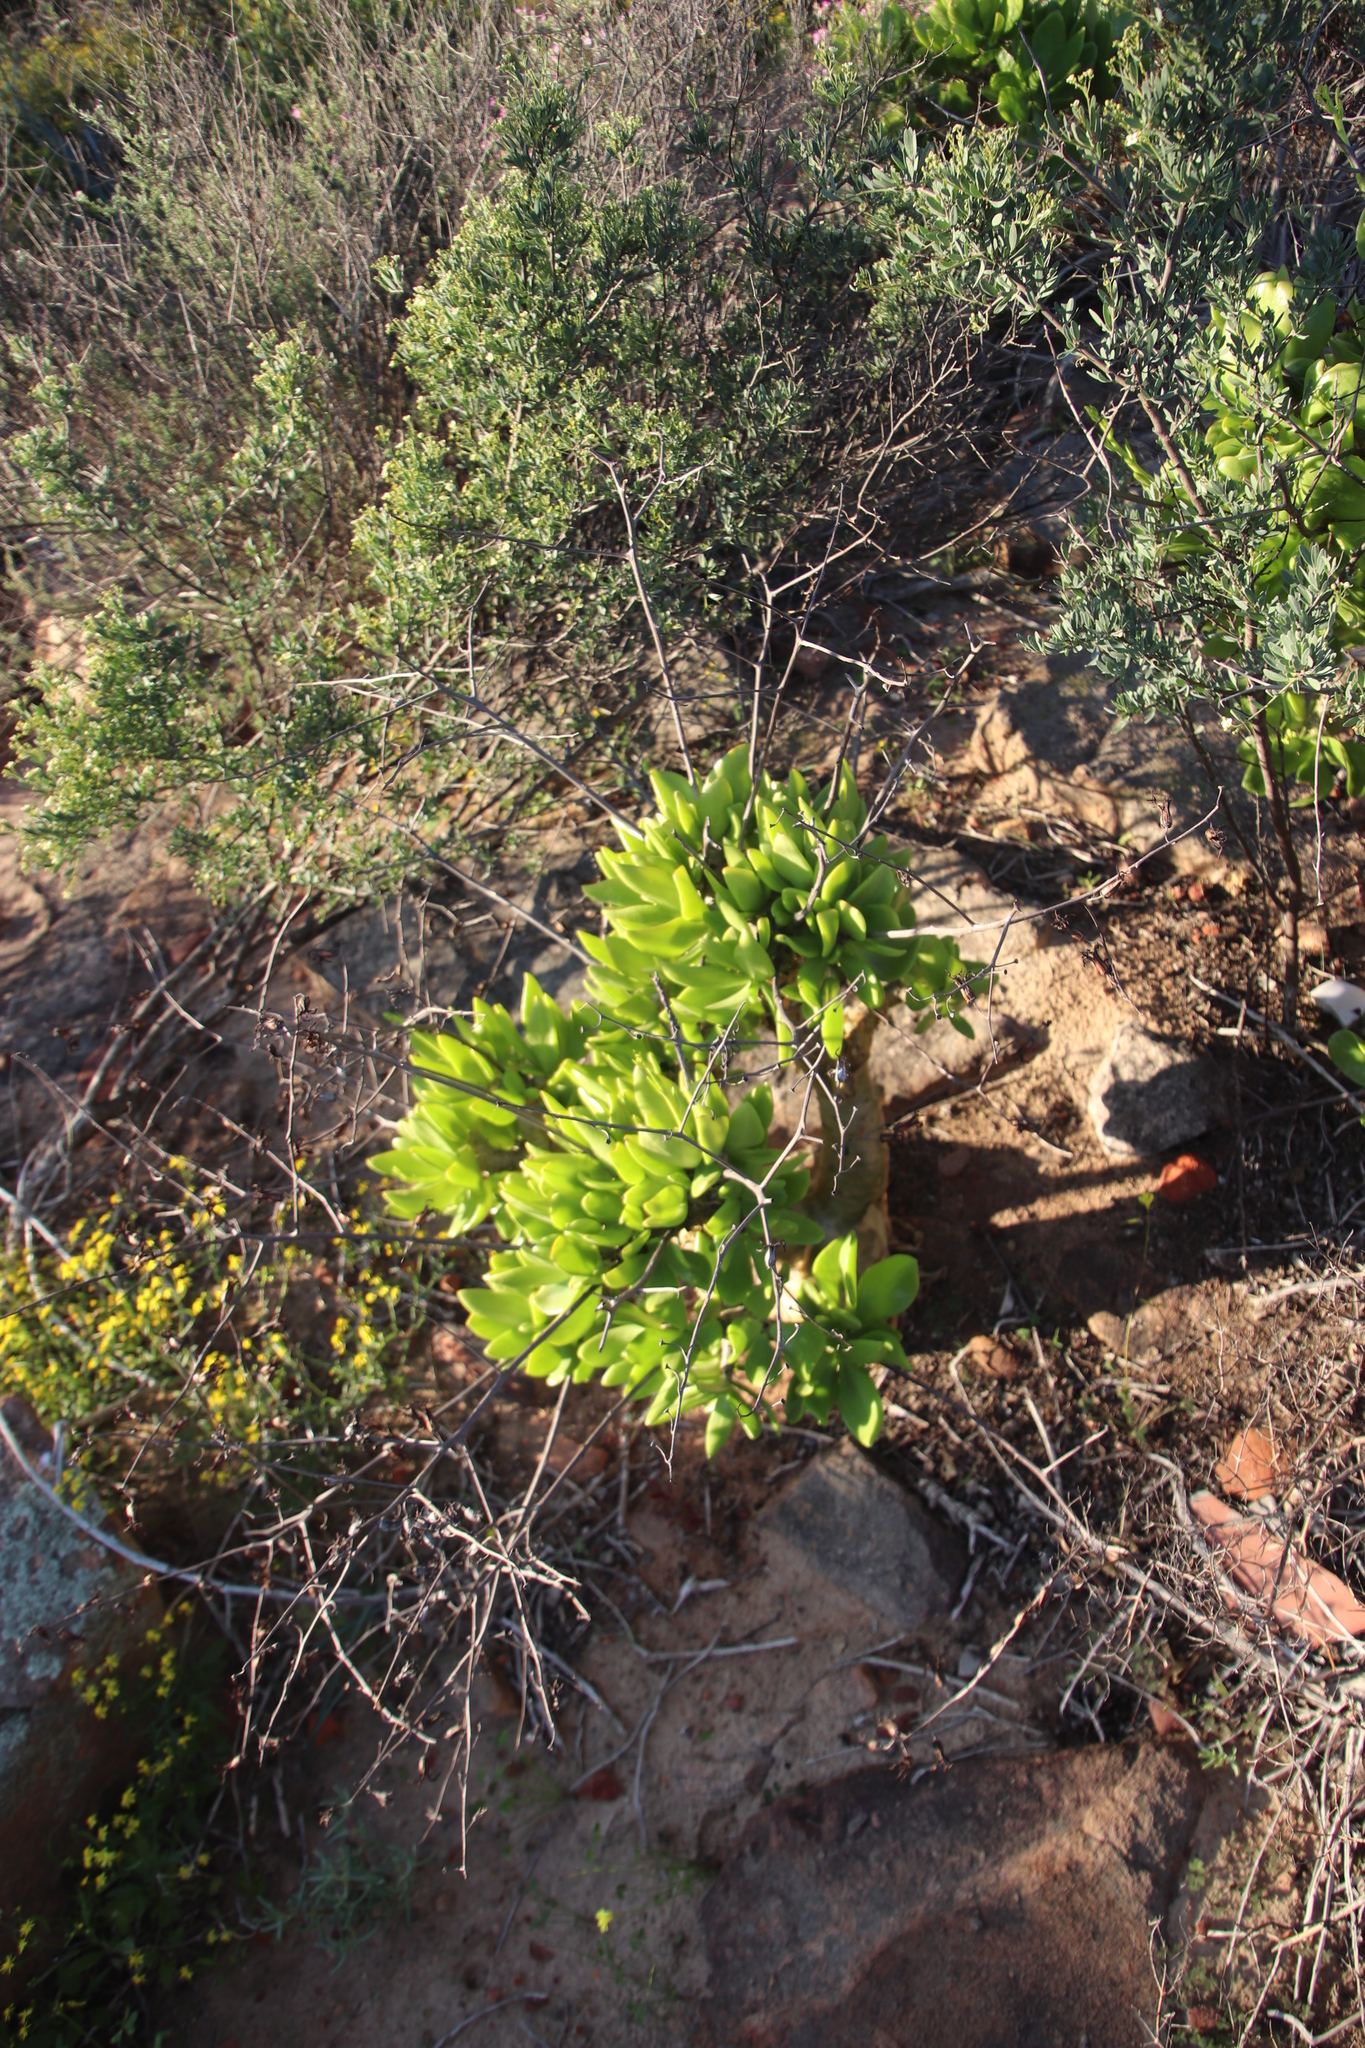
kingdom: Plantae
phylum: Tracheophyta
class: Magnoliopsida
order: Saxifragales
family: Crassulaceae
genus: Tylecodon
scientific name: Tylecodon paniculatus
